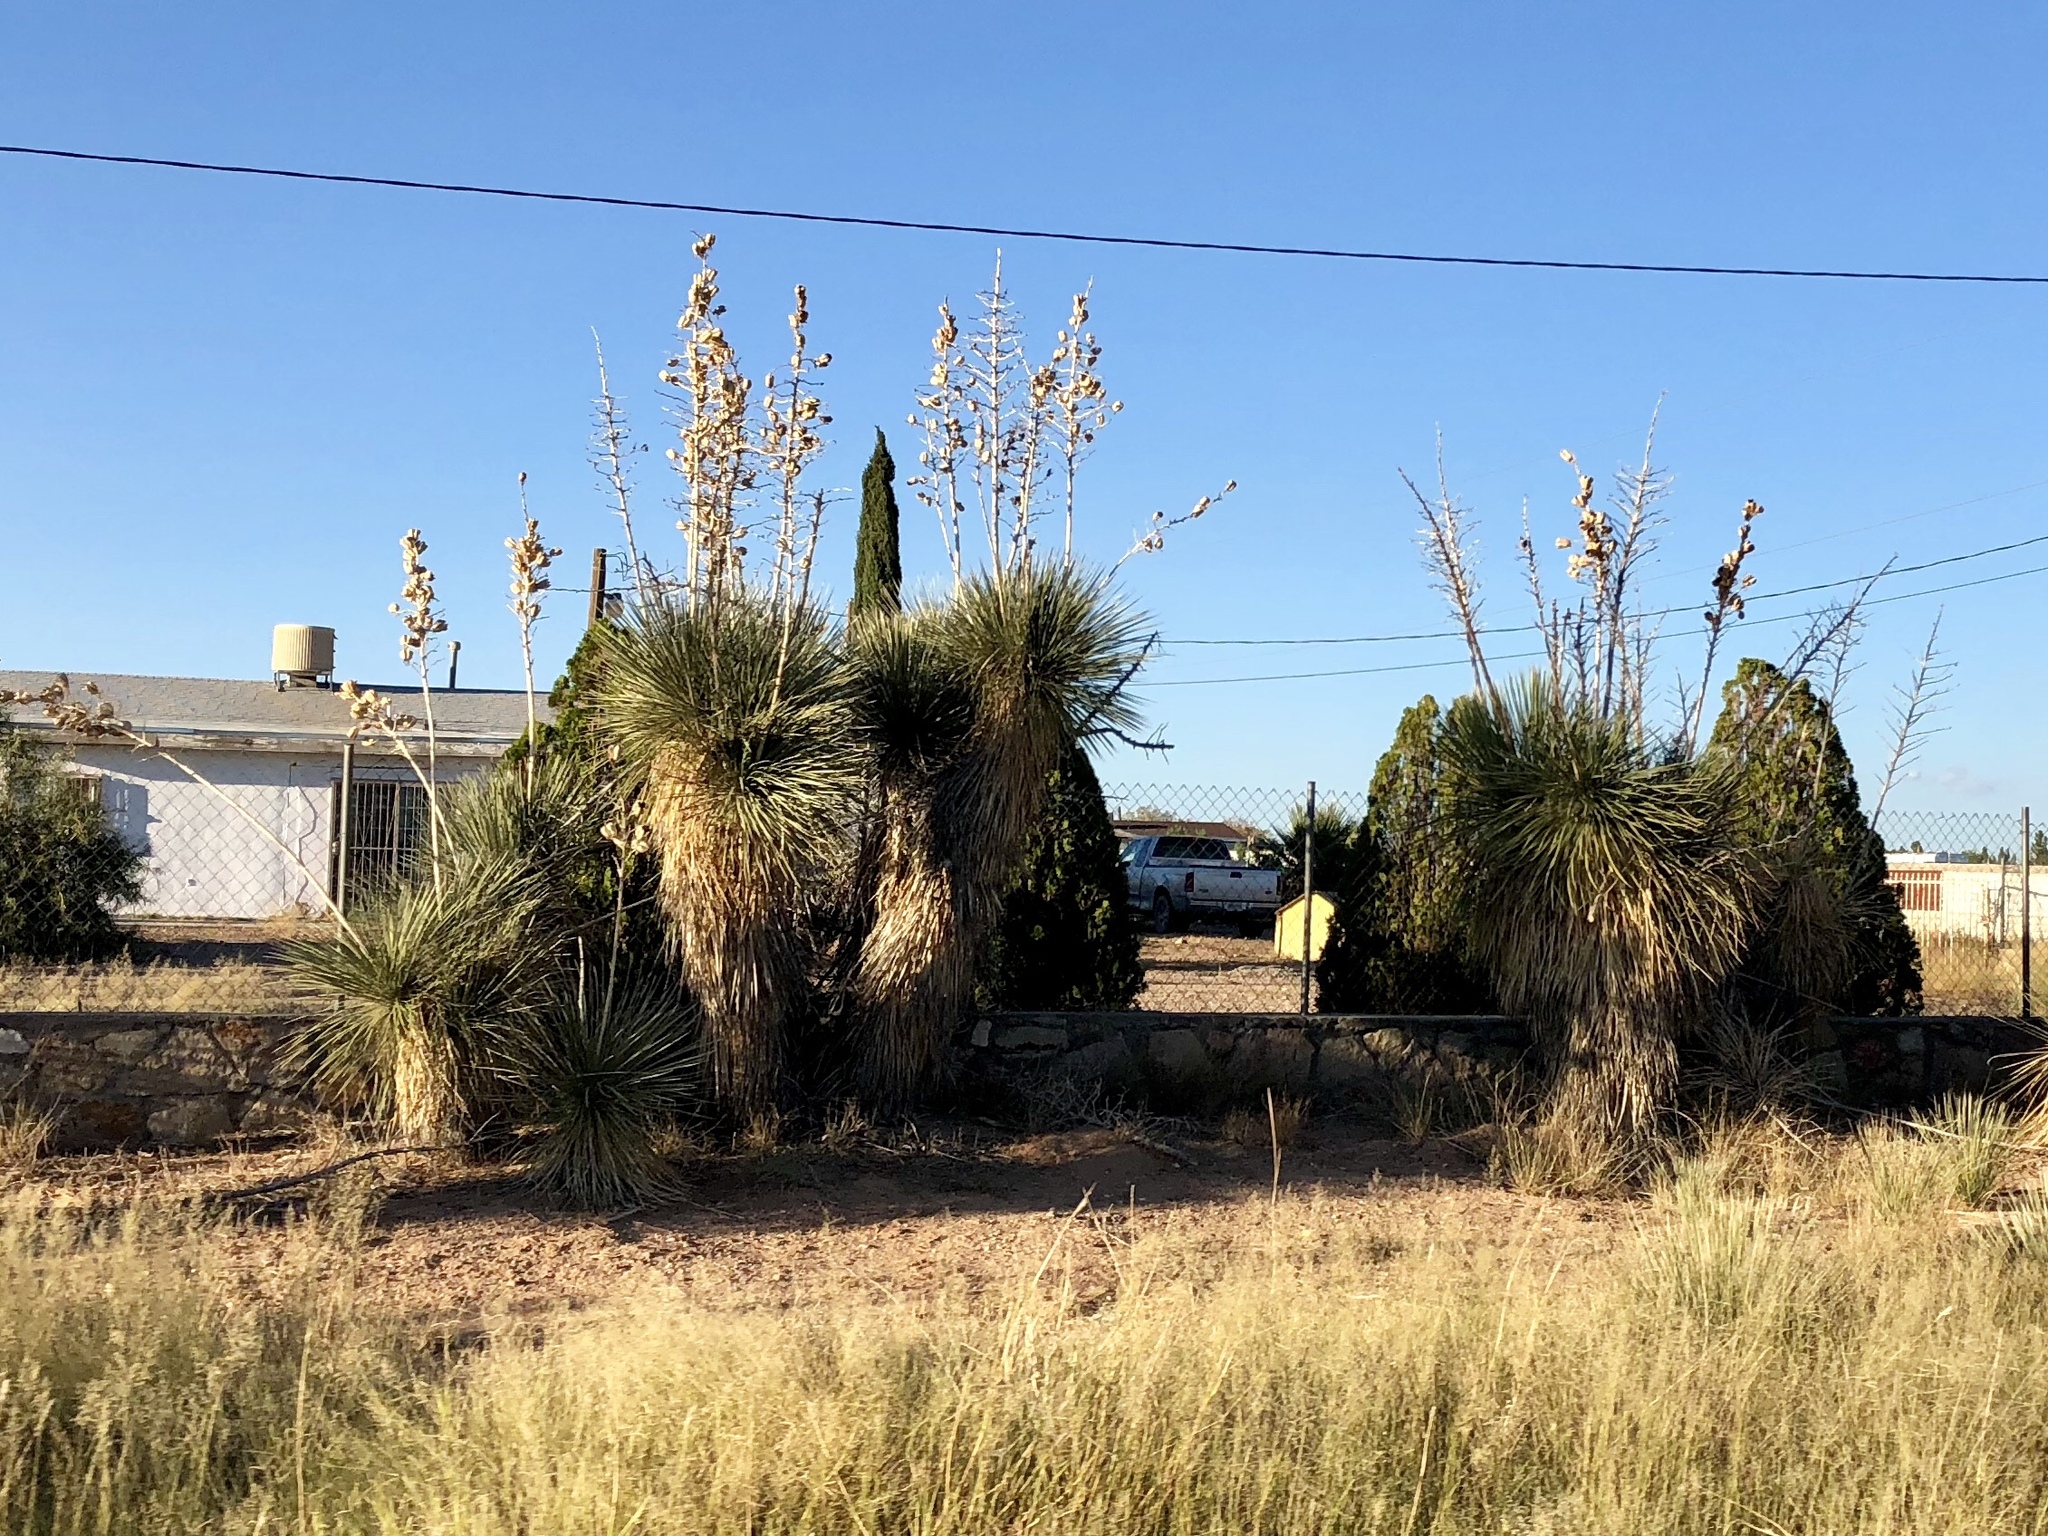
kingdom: Plantae
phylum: Tracheophyta
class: Liliopsida
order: Asparagales
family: Asparagaceae
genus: Yucca
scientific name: Yucca elata
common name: Palmella
